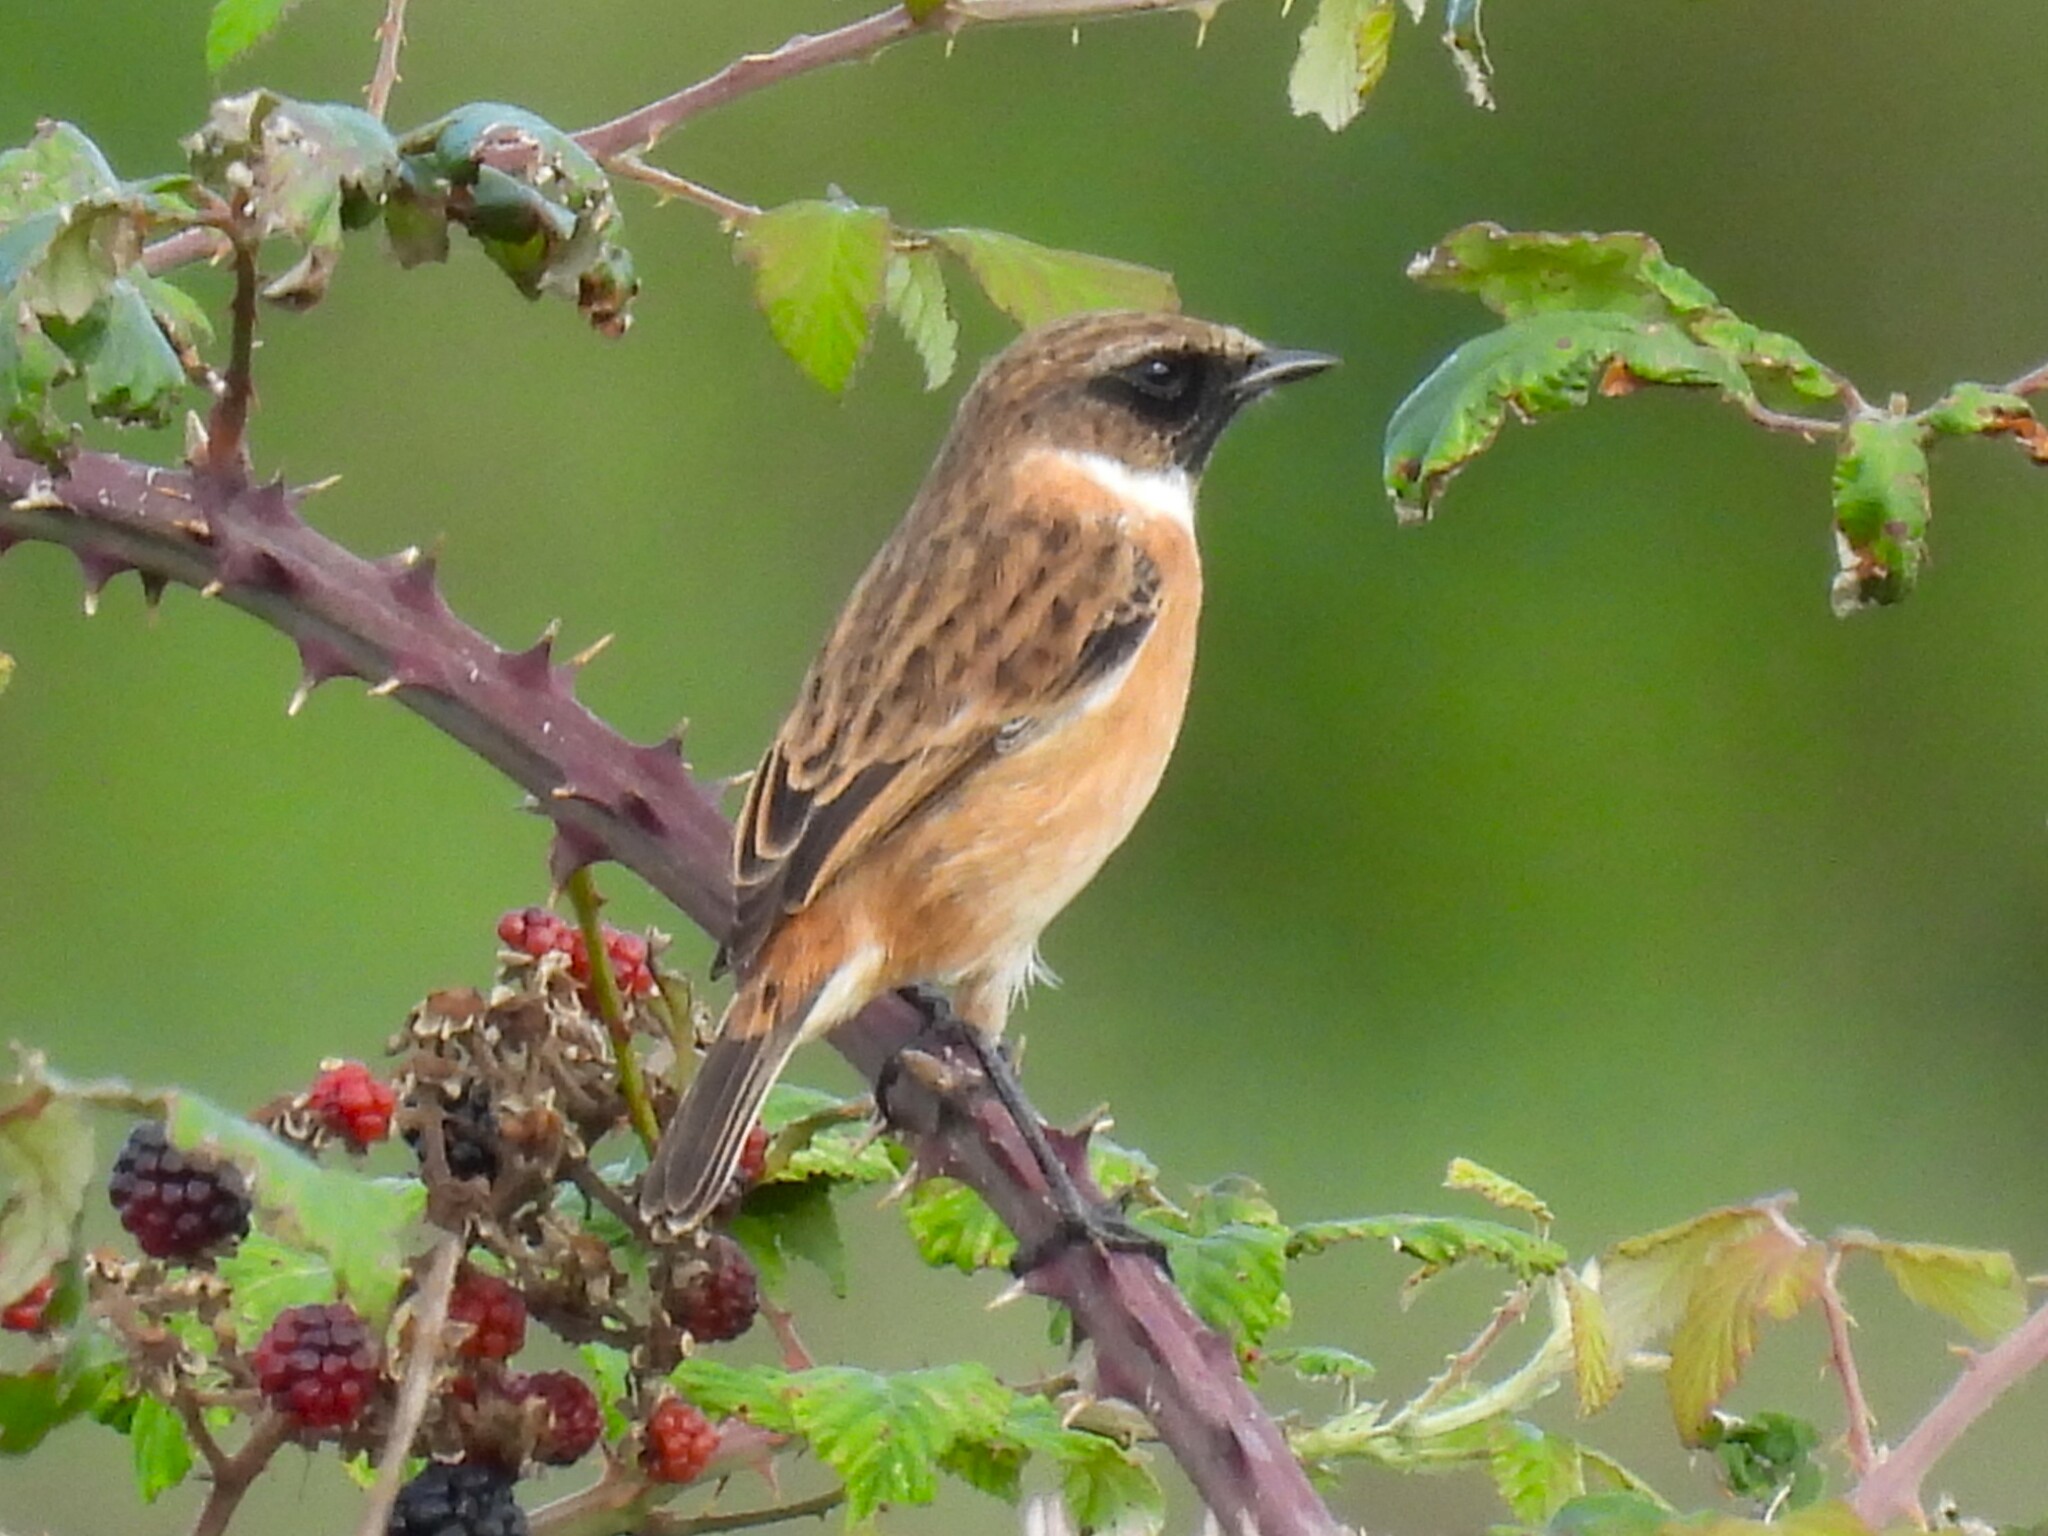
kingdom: Animalia
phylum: Chordata
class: Aves
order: Passeriformes
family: Muscicapidae
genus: Saxicola
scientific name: Saxicola rubicola
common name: European stonechat
